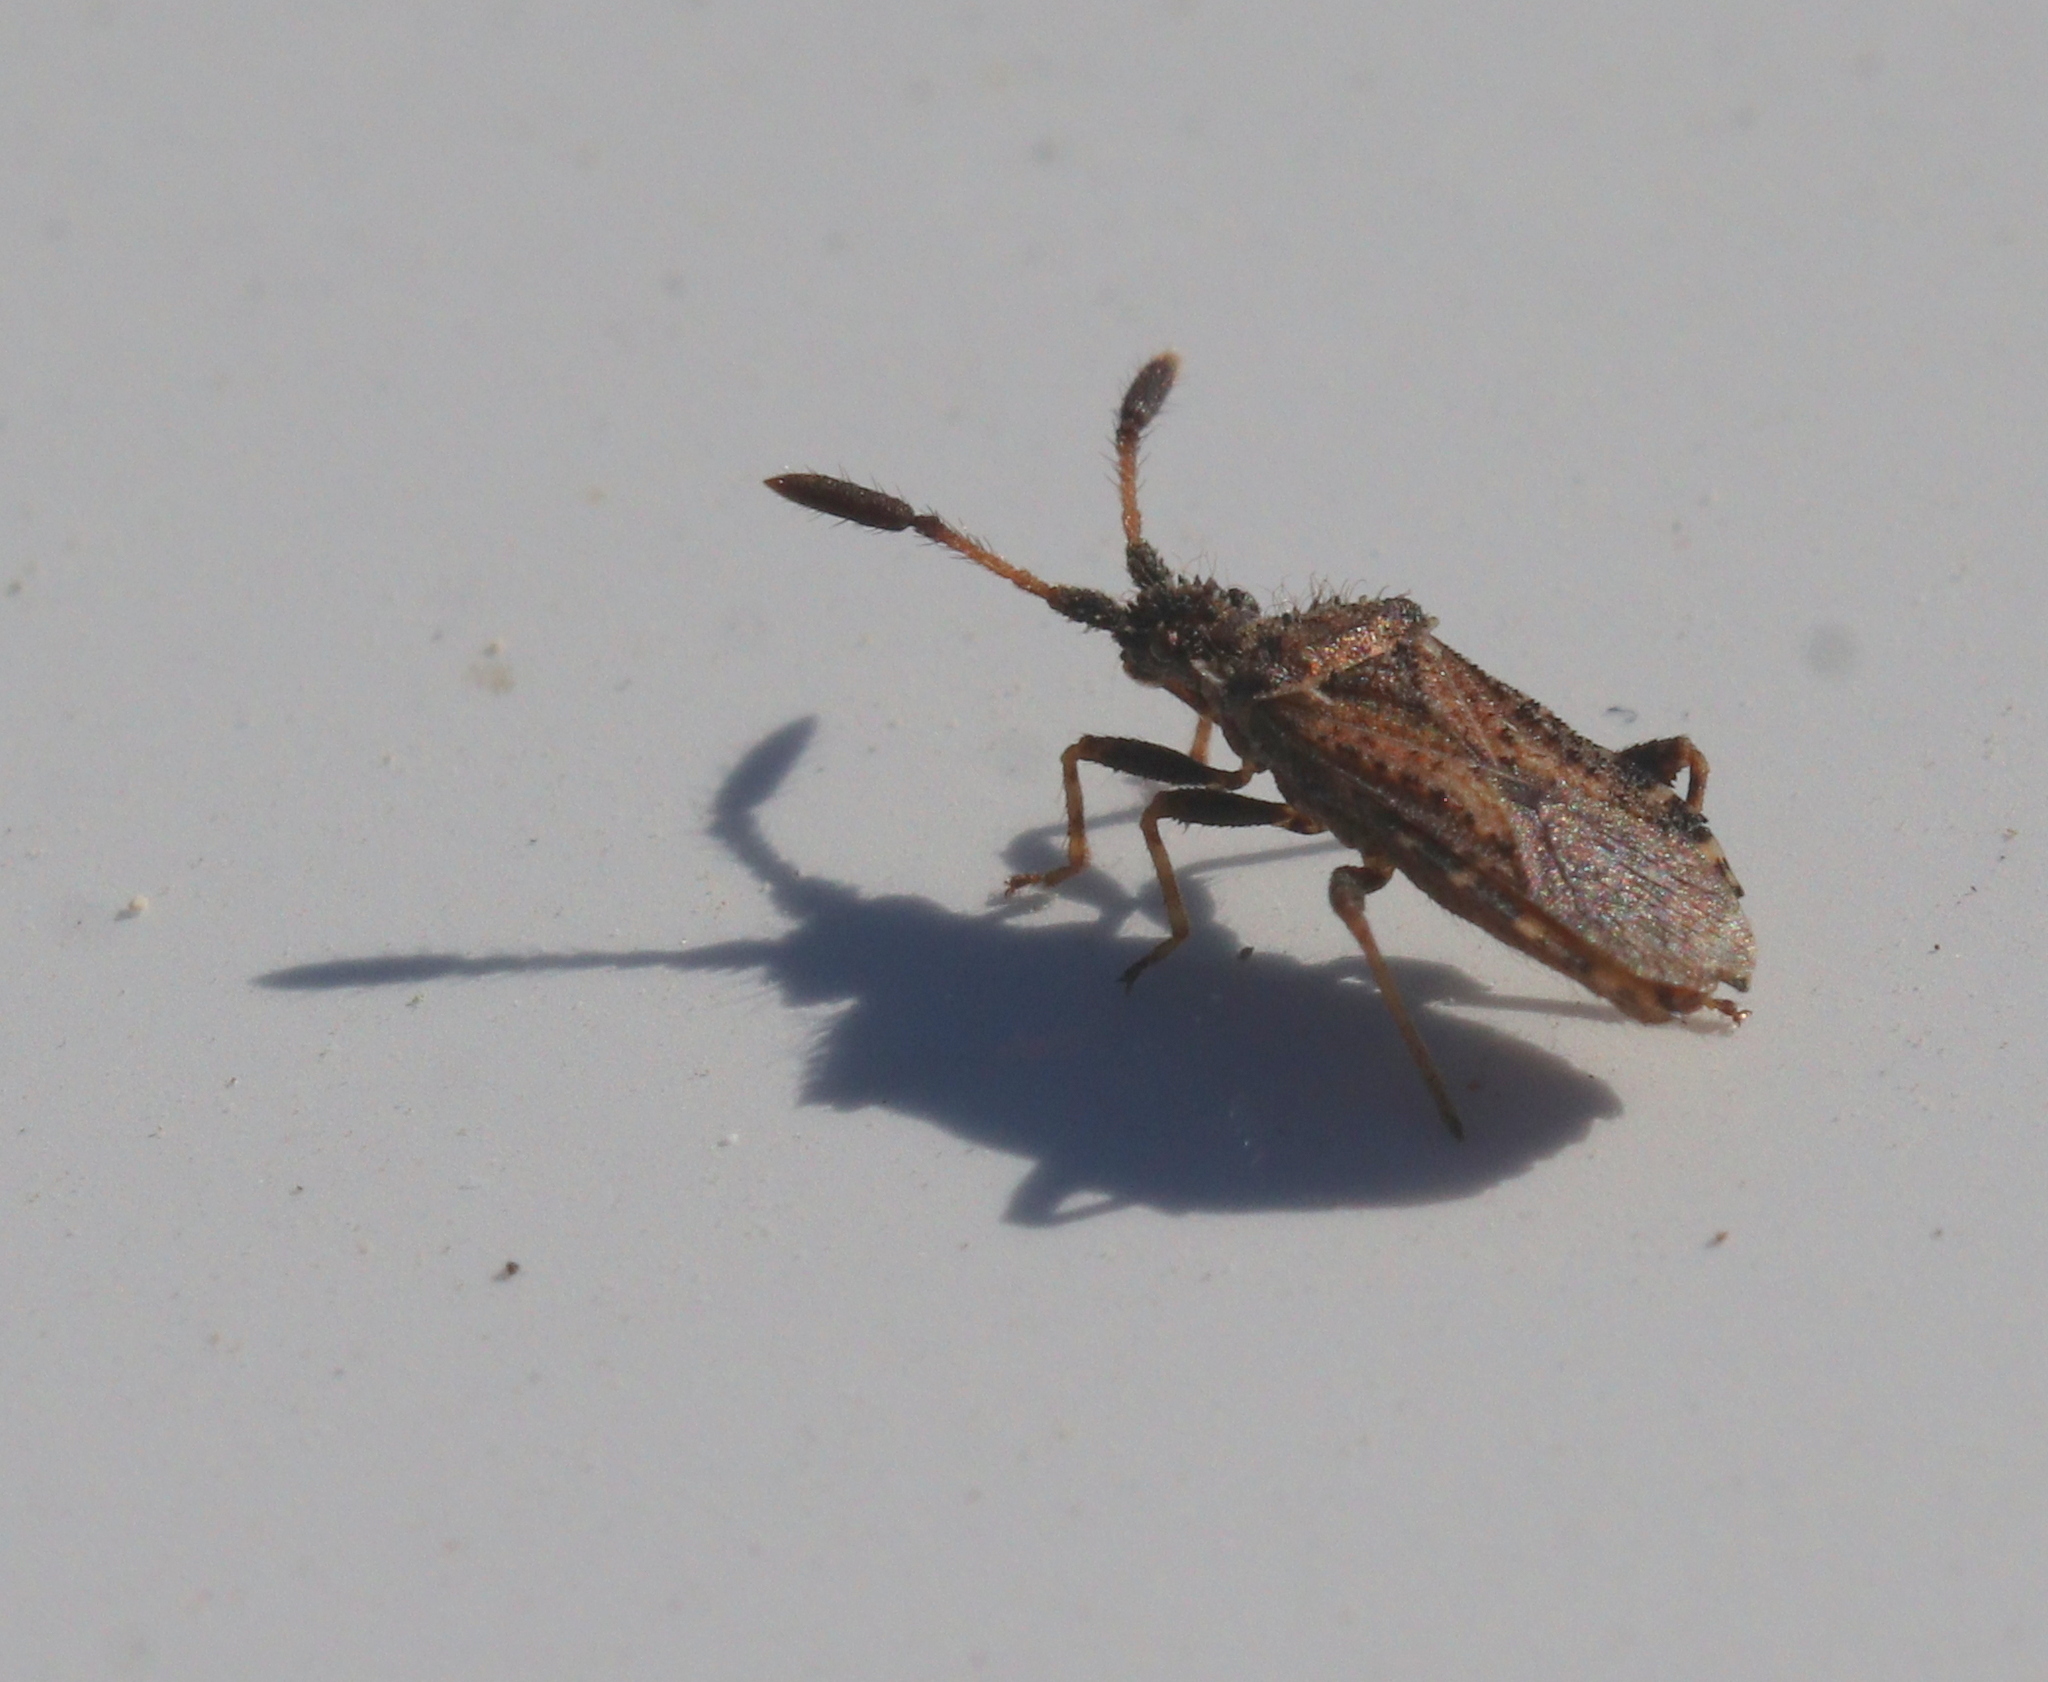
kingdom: Animalia
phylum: Arthropoda
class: Insecta
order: Hemiptera
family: Coreidae
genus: Strobilotoma
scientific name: Strobilotoma typhaecornis
